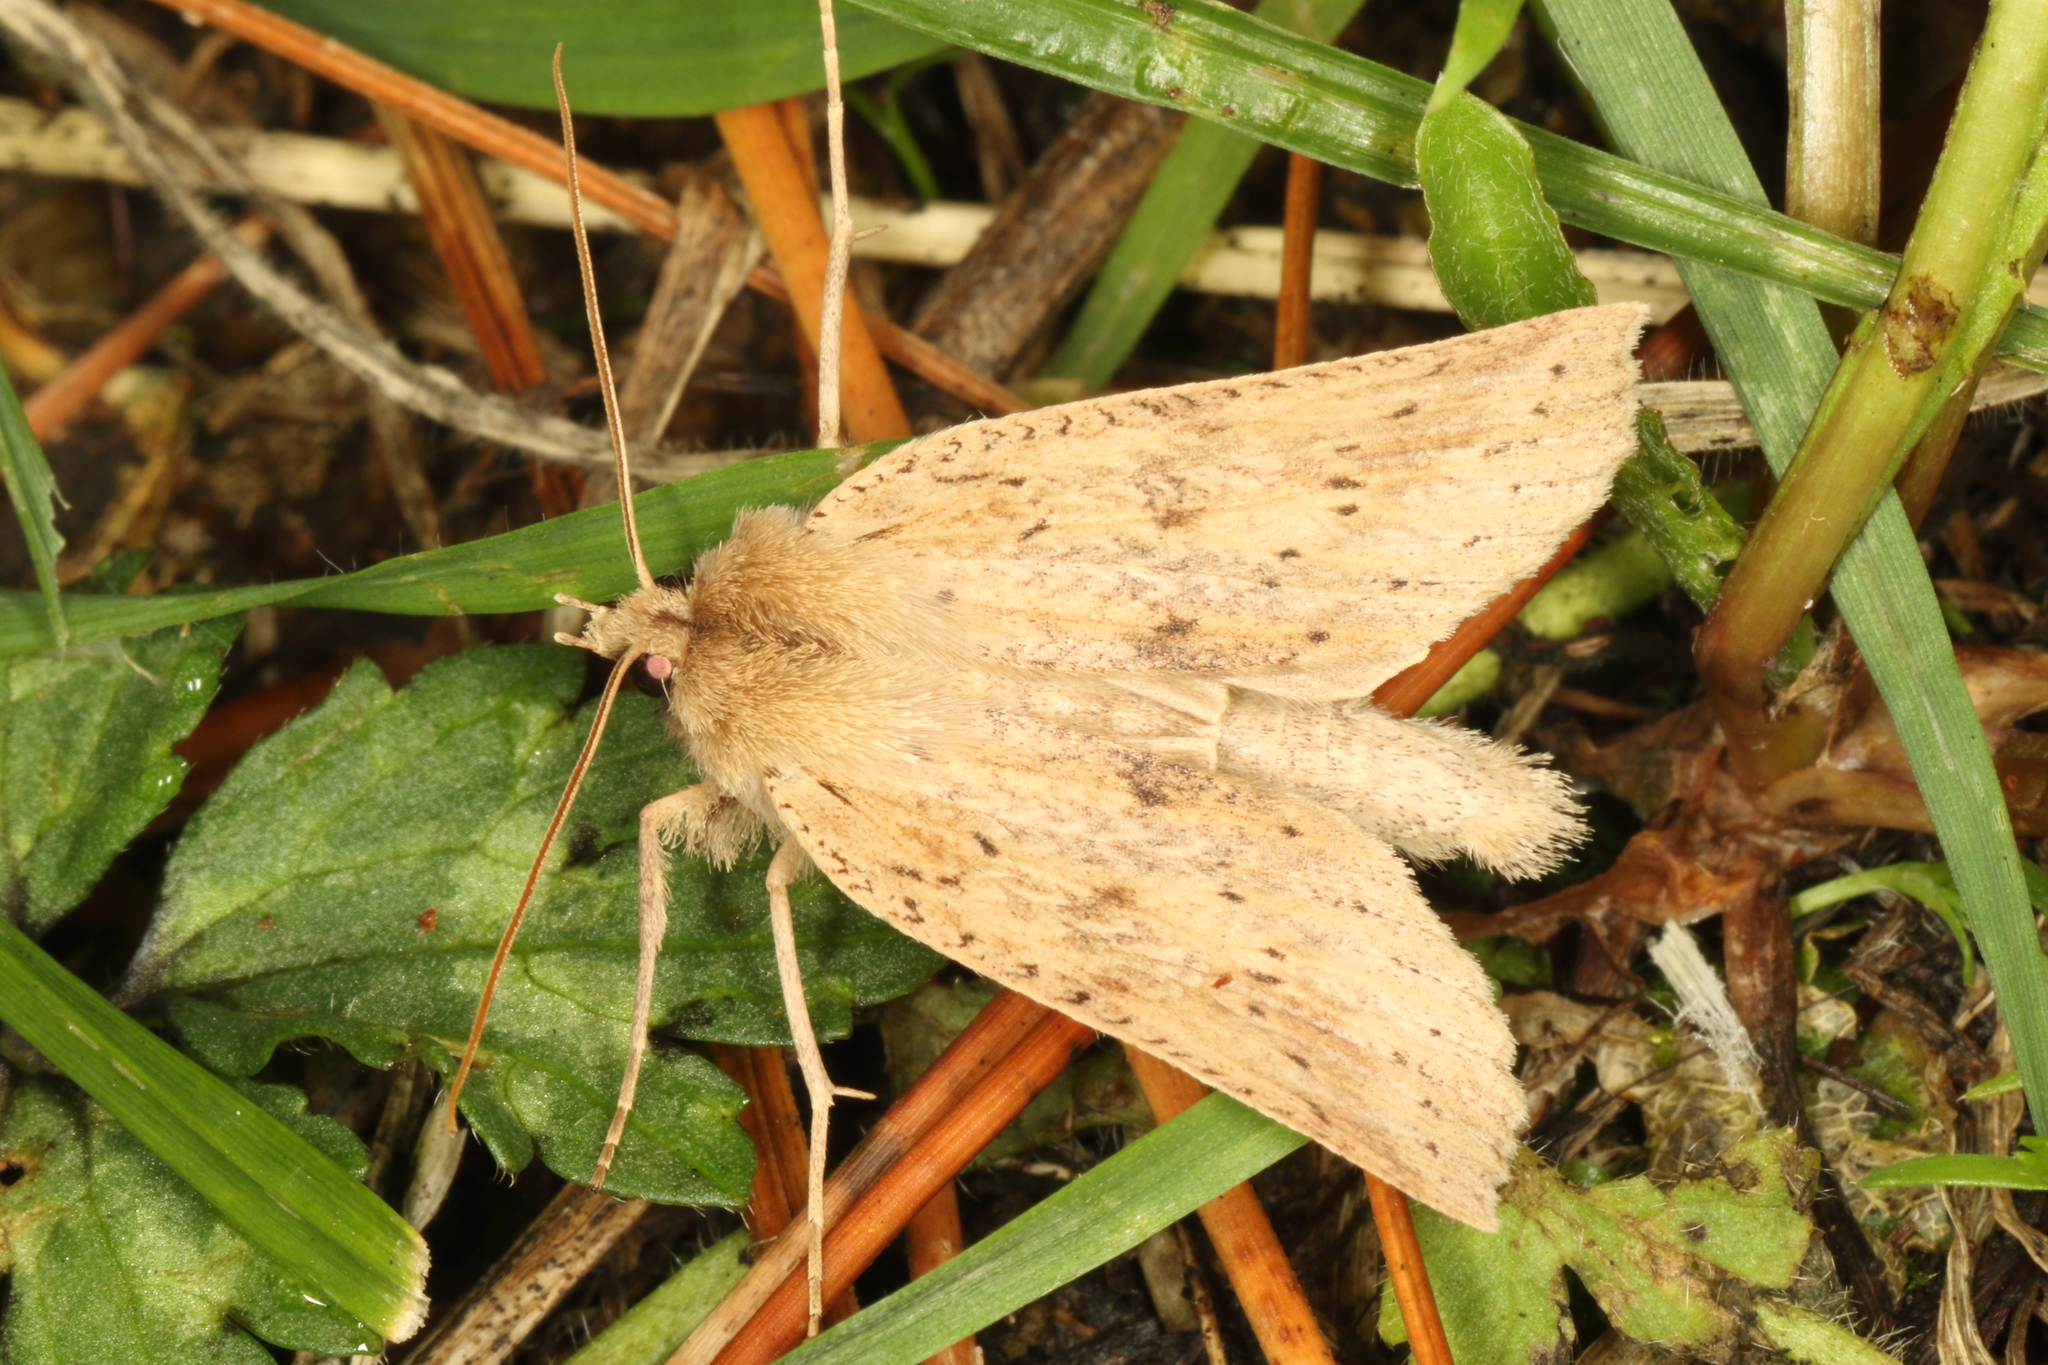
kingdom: Animalia
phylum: Arthropoda
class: Insecta
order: Lepidoptera
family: Geometridae
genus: Declana
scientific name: Declana leptomera
